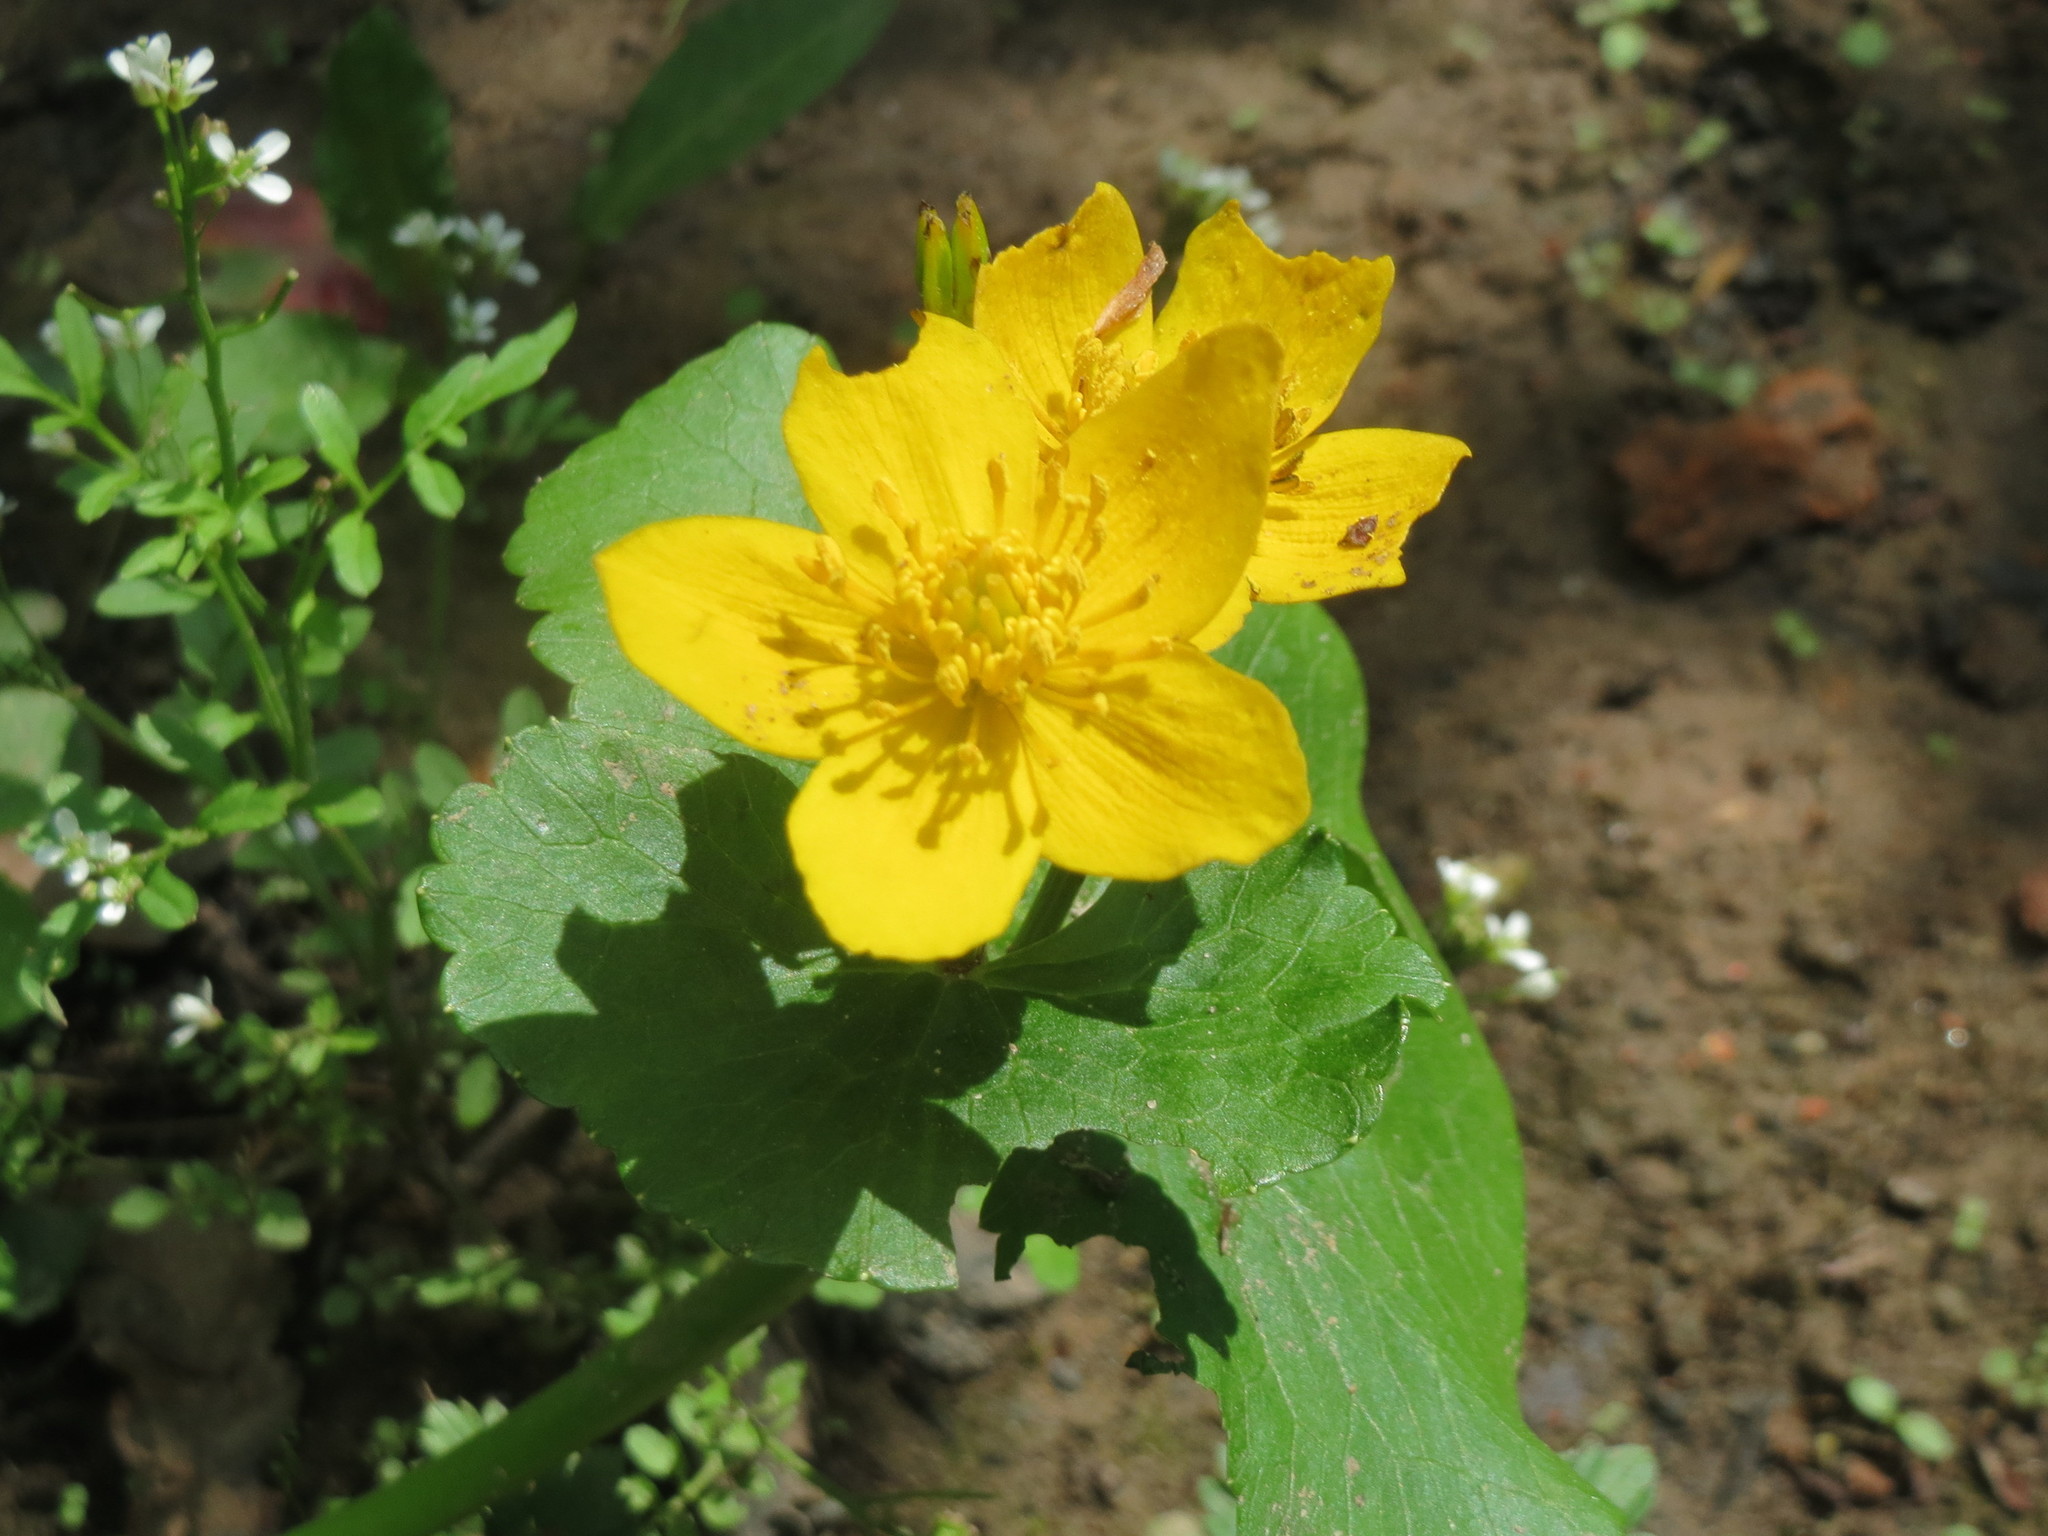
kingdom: Plantae
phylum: Tracheophyta
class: Magnoliopsida
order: Ranunculales
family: Ranunculaceae
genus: Caltha
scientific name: Caltha palustris
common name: Marsh marigold
